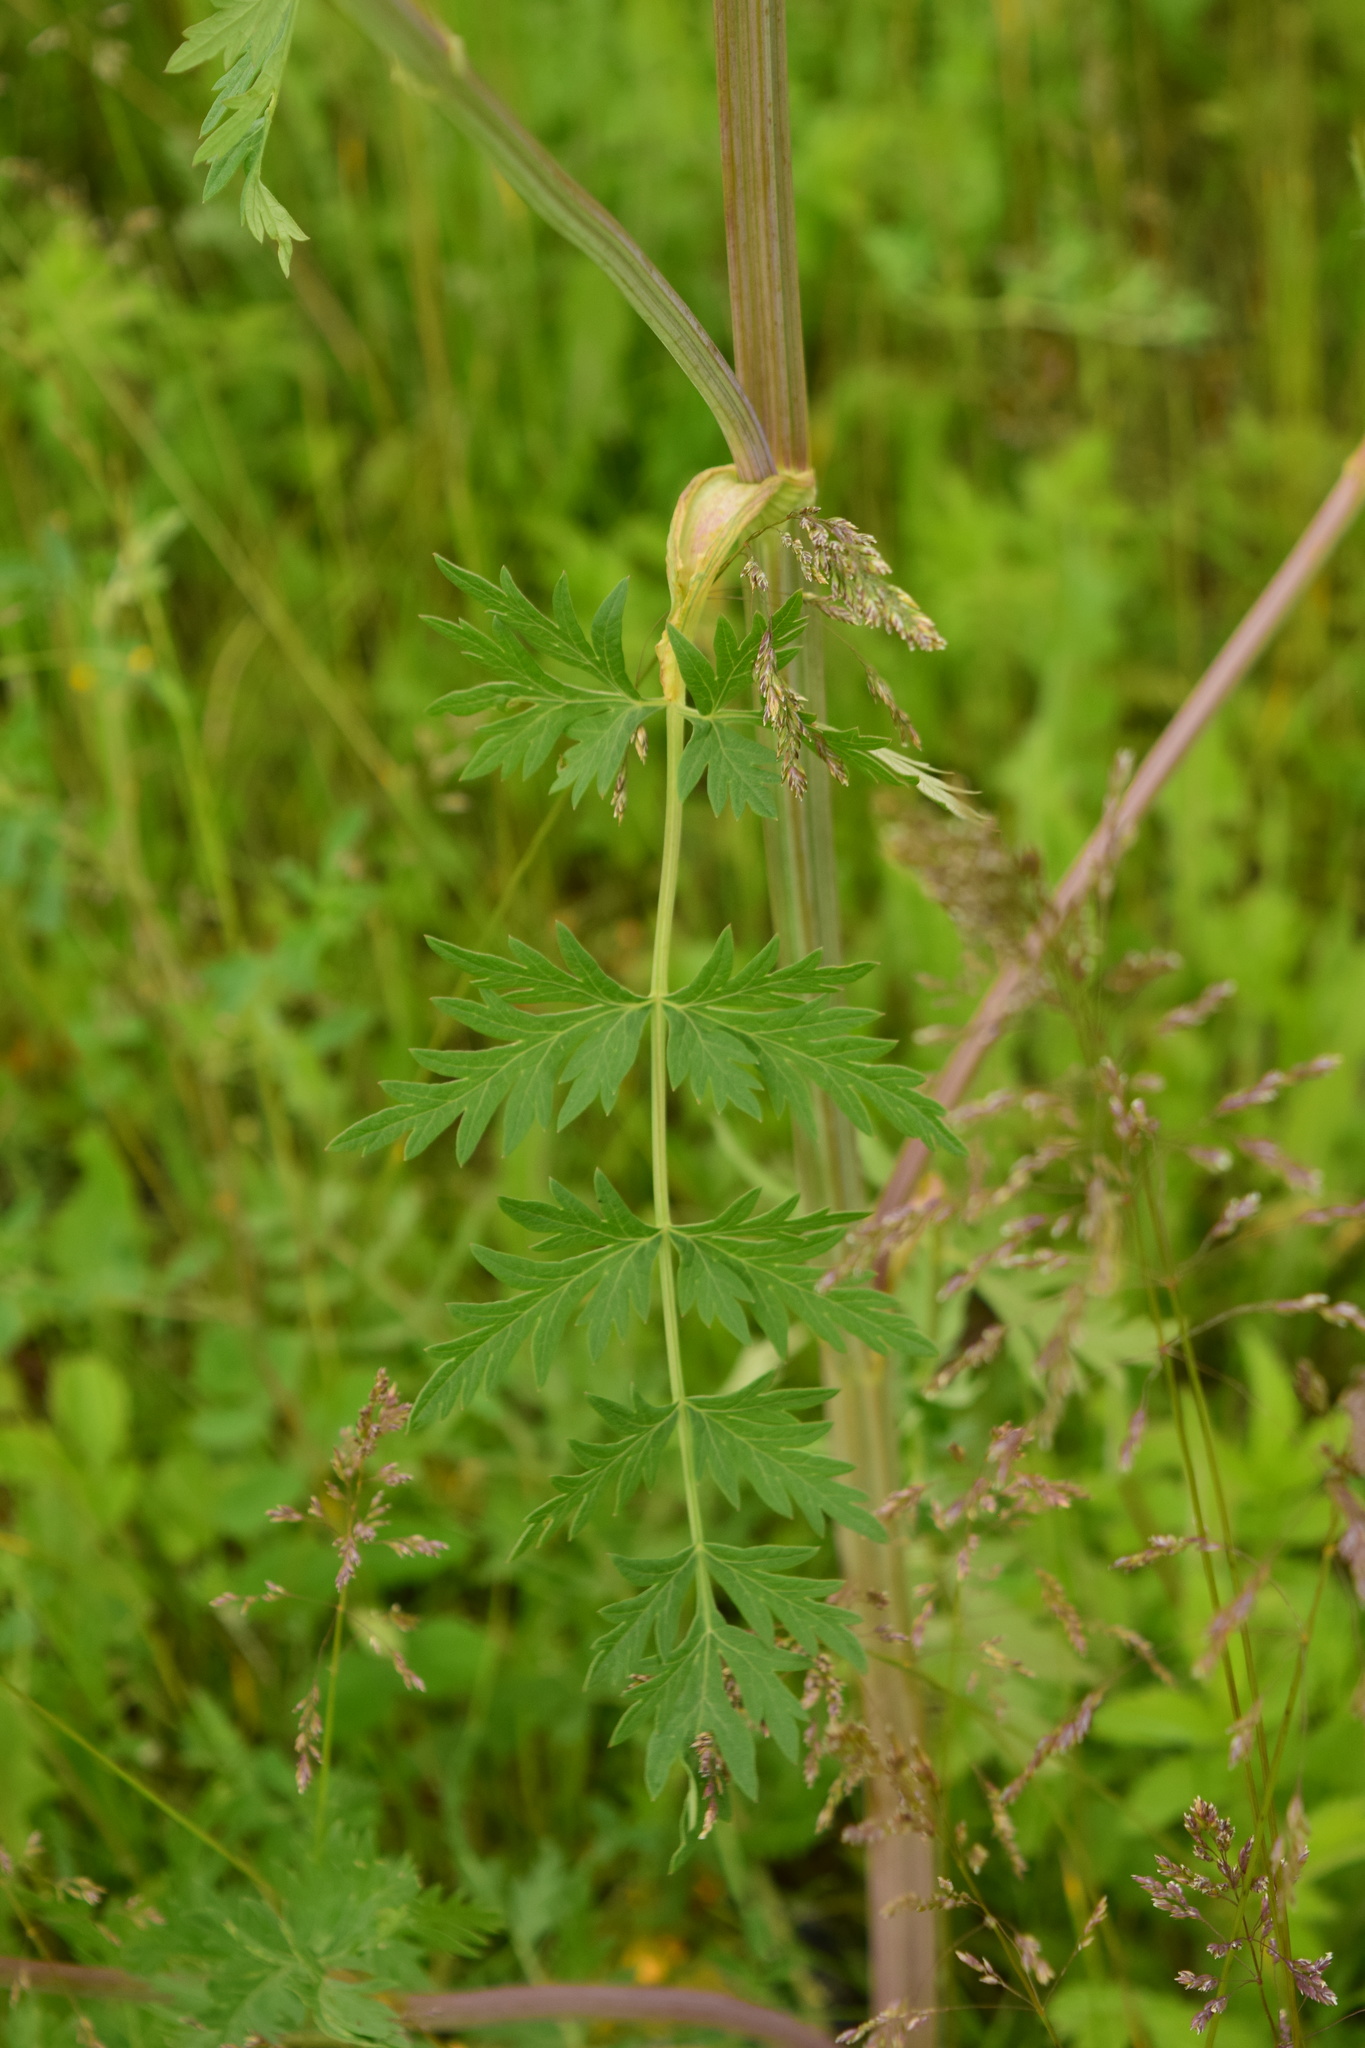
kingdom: Plantae
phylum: Tracheophyta
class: Magnoliopsida
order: Apiales
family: Apiaceae
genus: Seseli
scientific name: Seseli libanotis
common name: Mooncarrot
